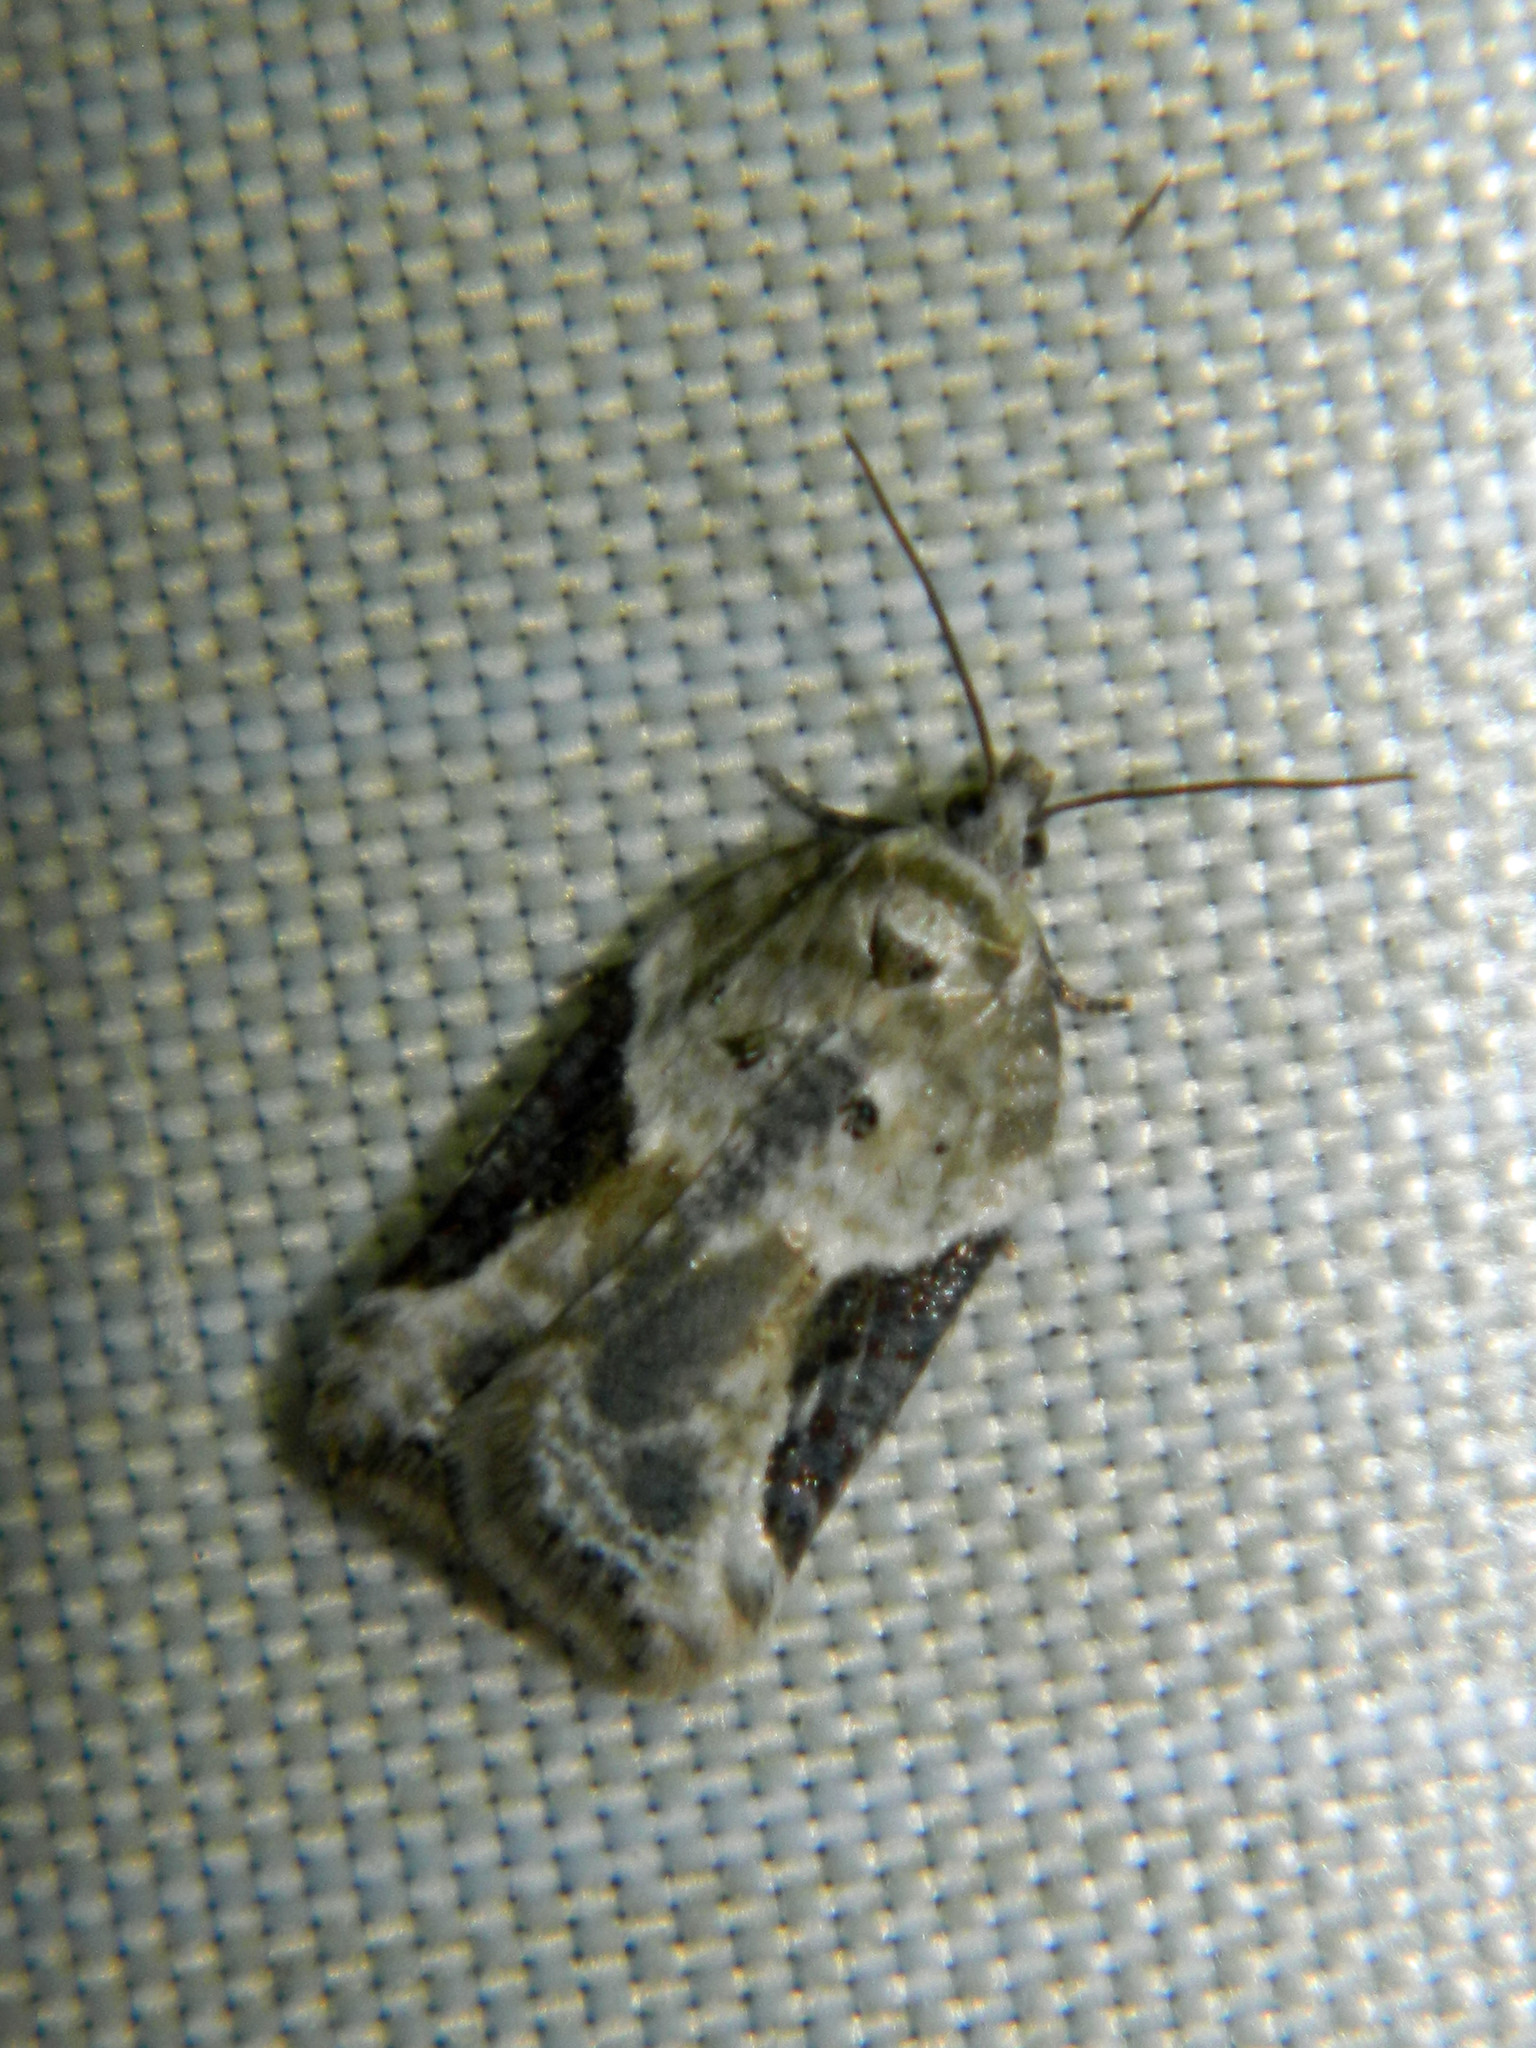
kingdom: Animalia
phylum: Arthropoda
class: Insecta
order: Lepidoptera
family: Tortricidae
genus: Acleris
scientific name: Acleris forbesana
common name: Forbes' acleris moth
